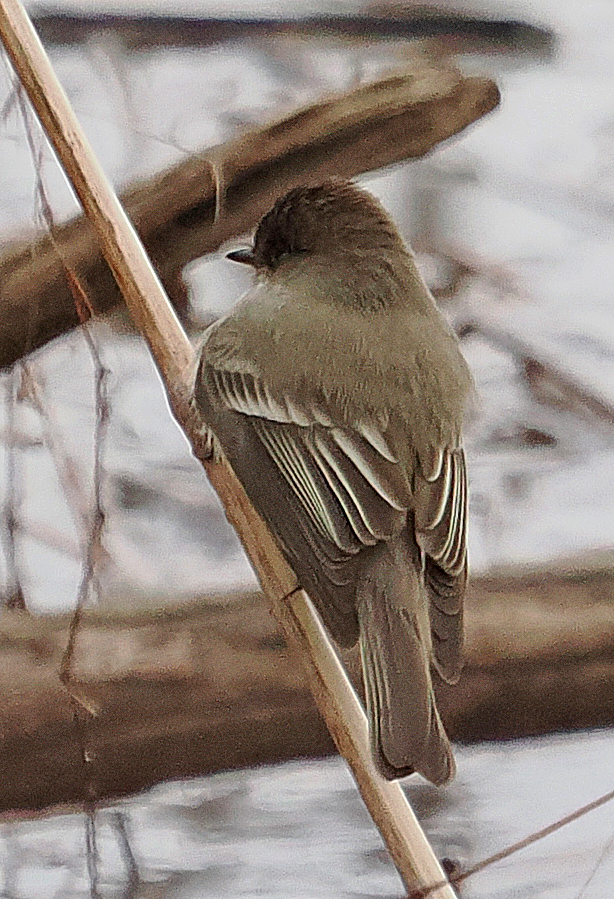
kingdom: Animalia
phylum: Chordata
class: Aves
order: Passeriformes
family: Tyrannidae
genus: Sayornis
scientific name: Sayornis phoebe
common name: Eastern phoebe
